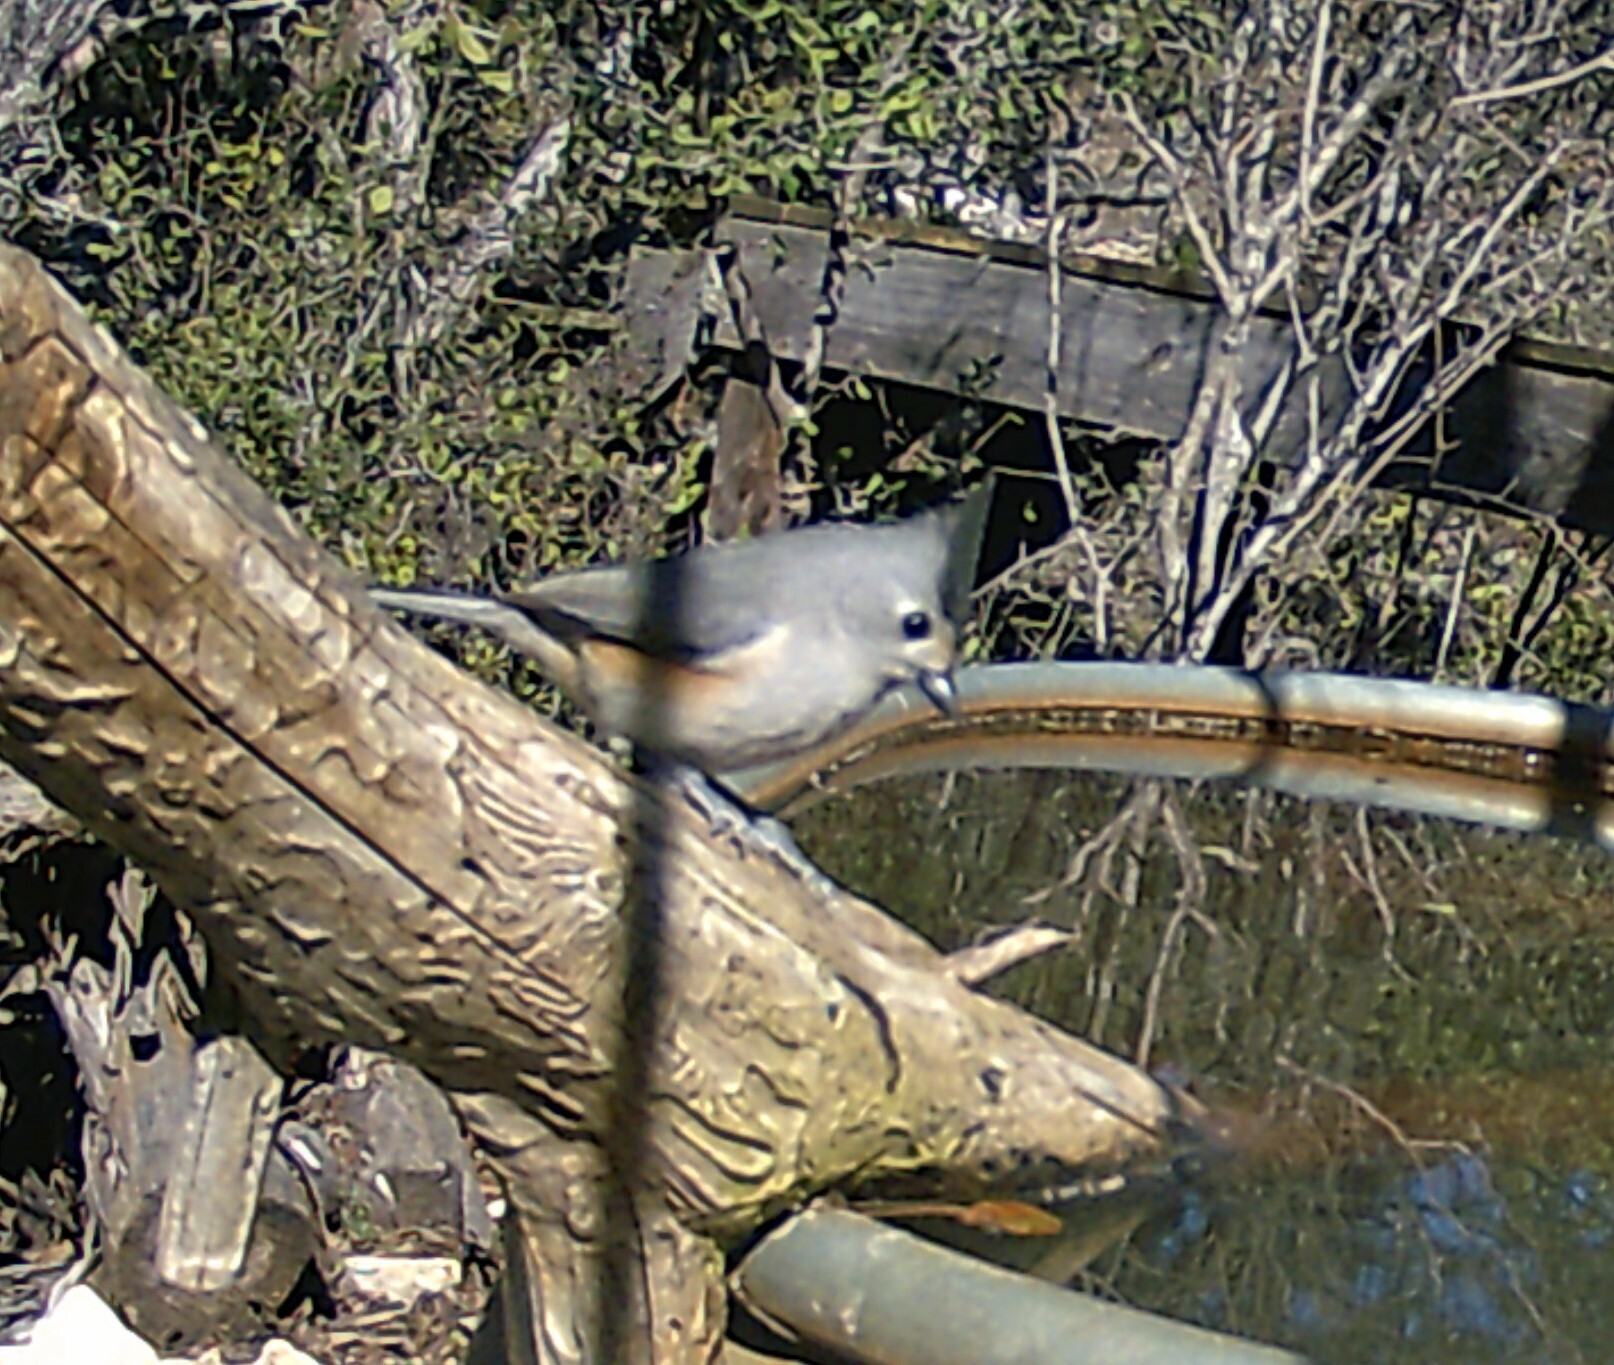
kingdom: Animalia
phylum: Chordata
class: Aves
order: Passeriformes
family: Paridae
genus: Baeolophus
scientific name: Baeolophus atricristatus
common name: Black-crested titmouse
